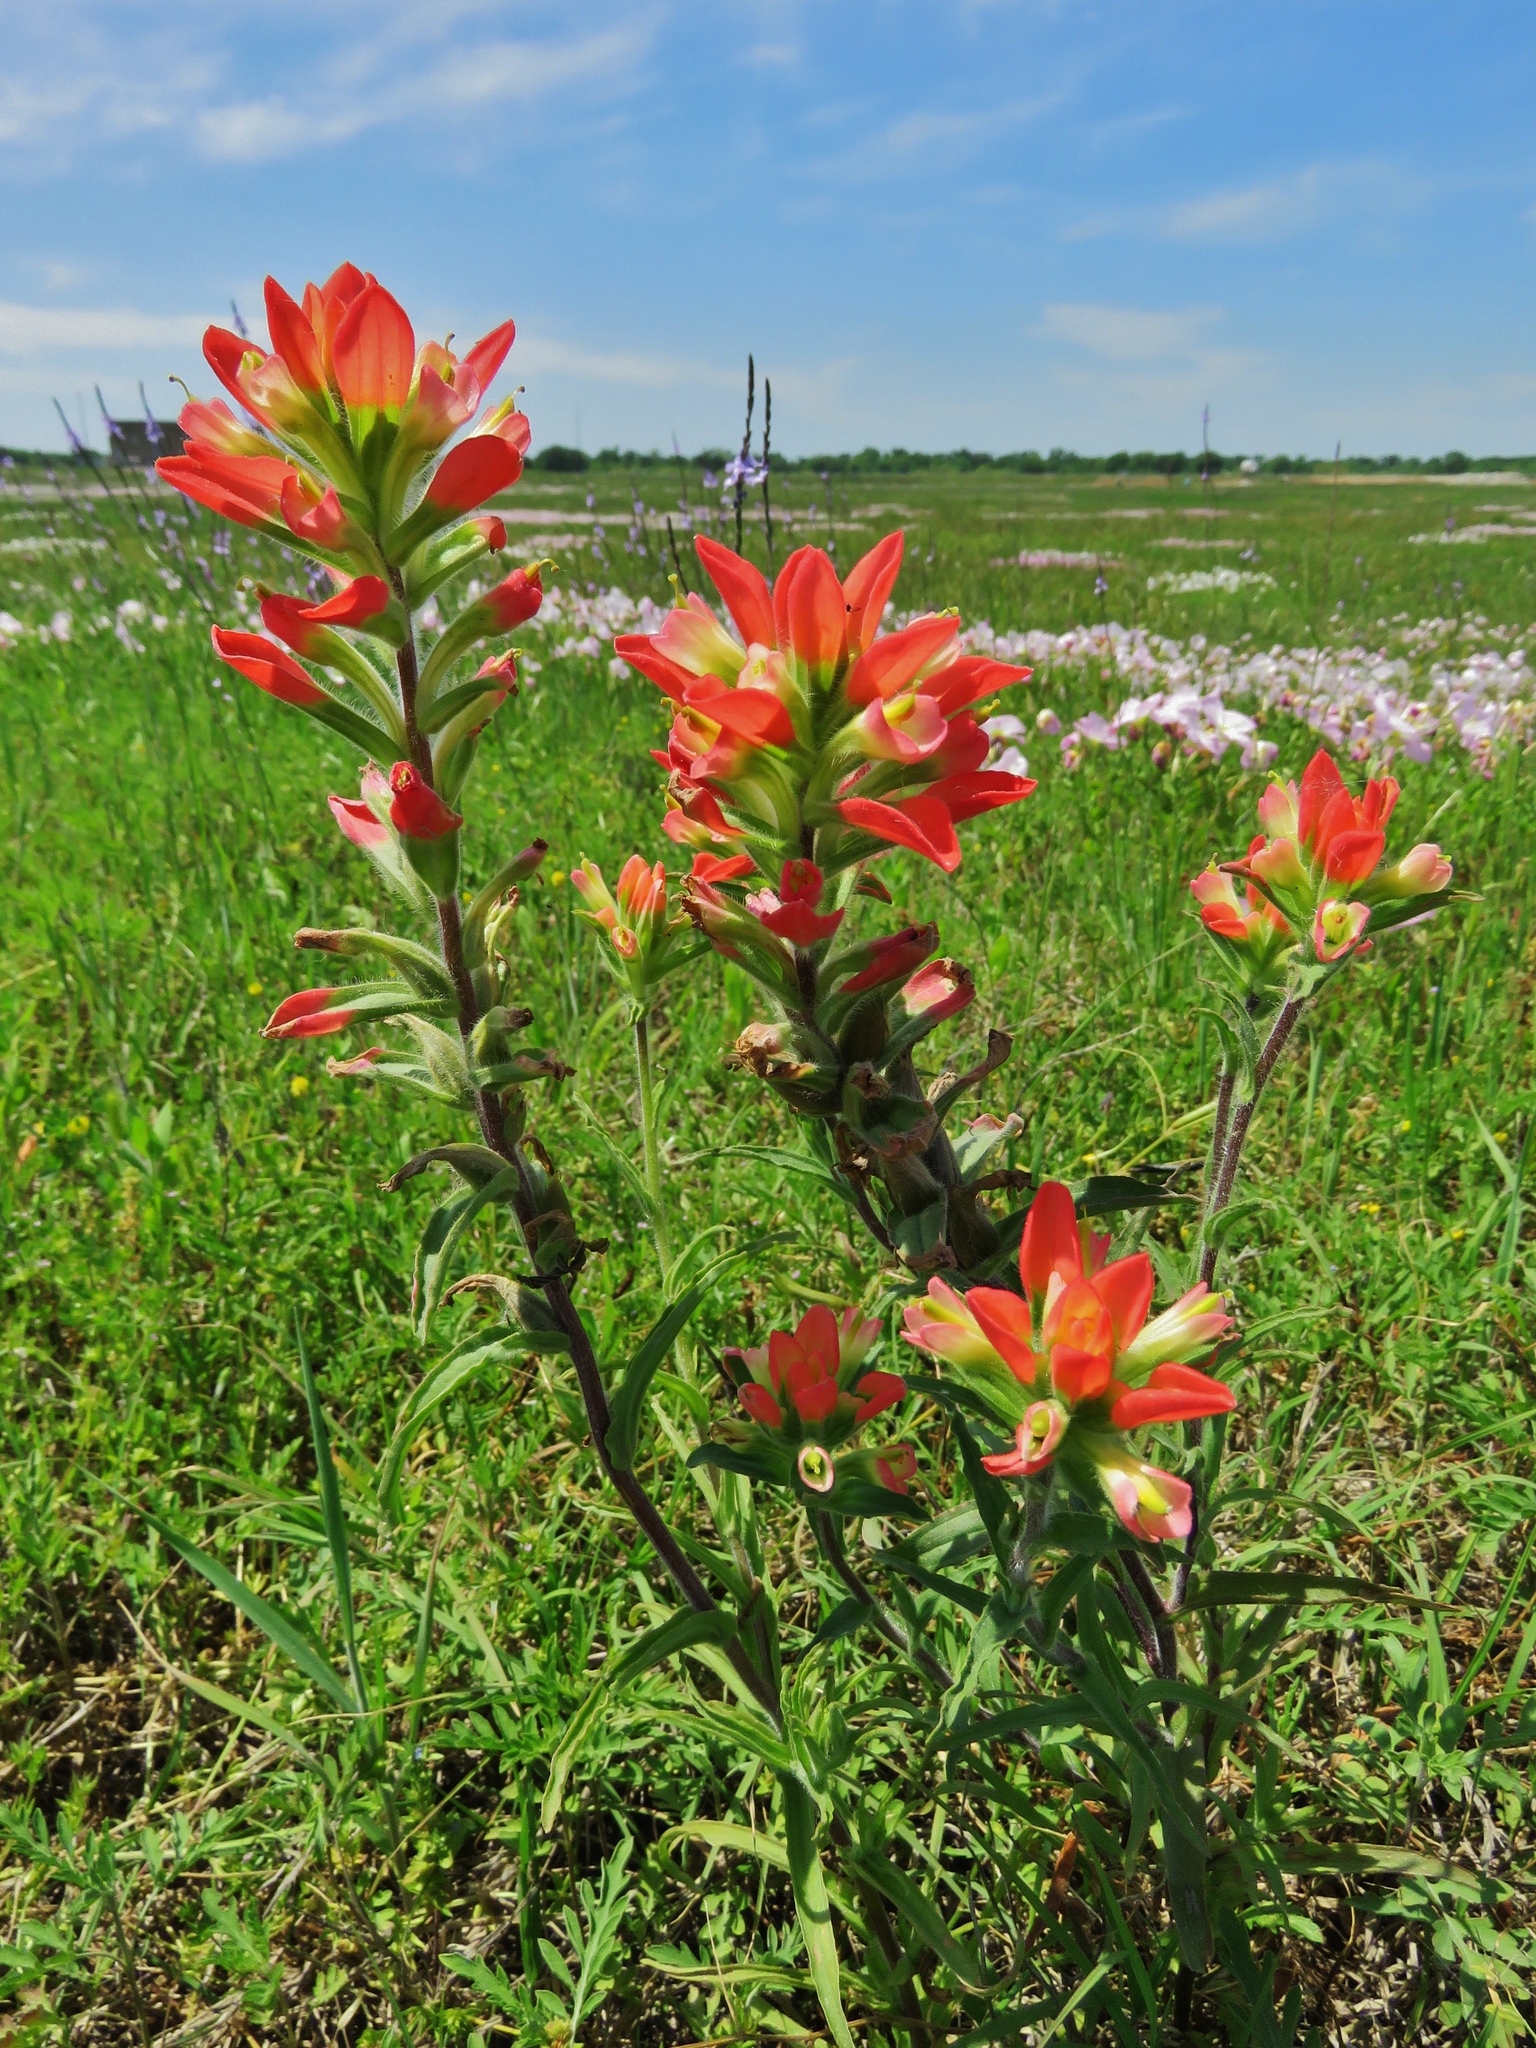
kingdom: Plantae
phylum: Tracheophyta
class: Magnoliopsida
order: Lamiales
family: Orobanchaceae
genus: Castilleja
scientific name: Castilleja indivisa
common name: Texas paintbrush
